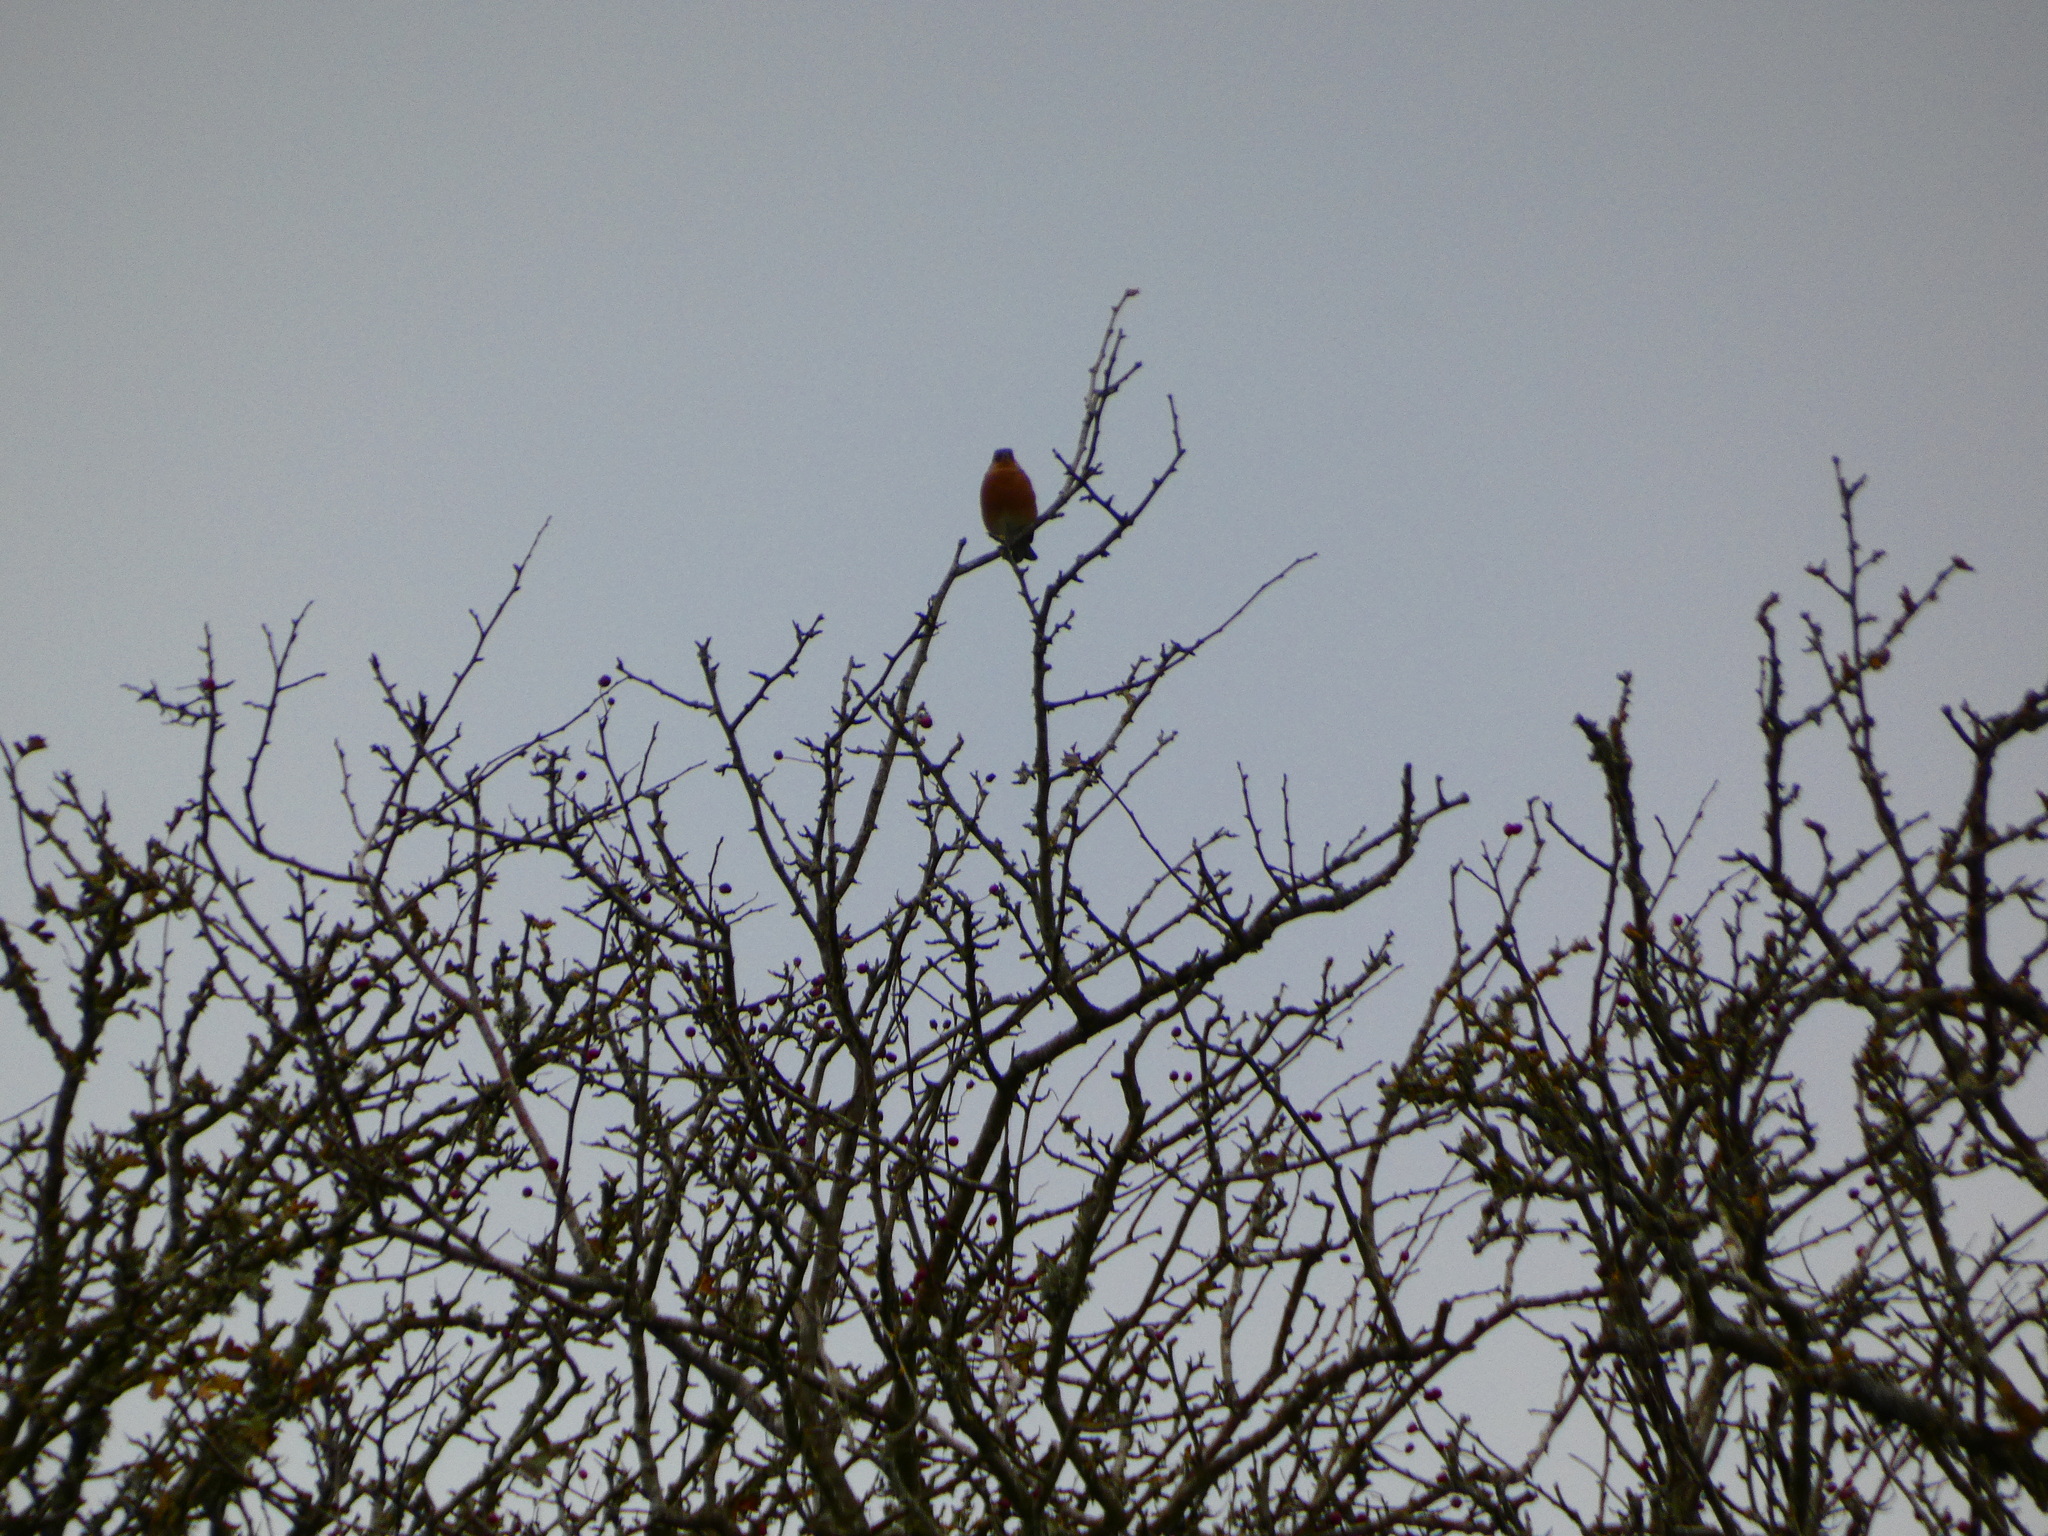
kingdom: Animalia
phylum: Chordata
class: Aves
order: Passeriformes
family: Fringillidae
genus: Fringilla
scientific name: Fringilla coelebs
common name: Common chaffinch
